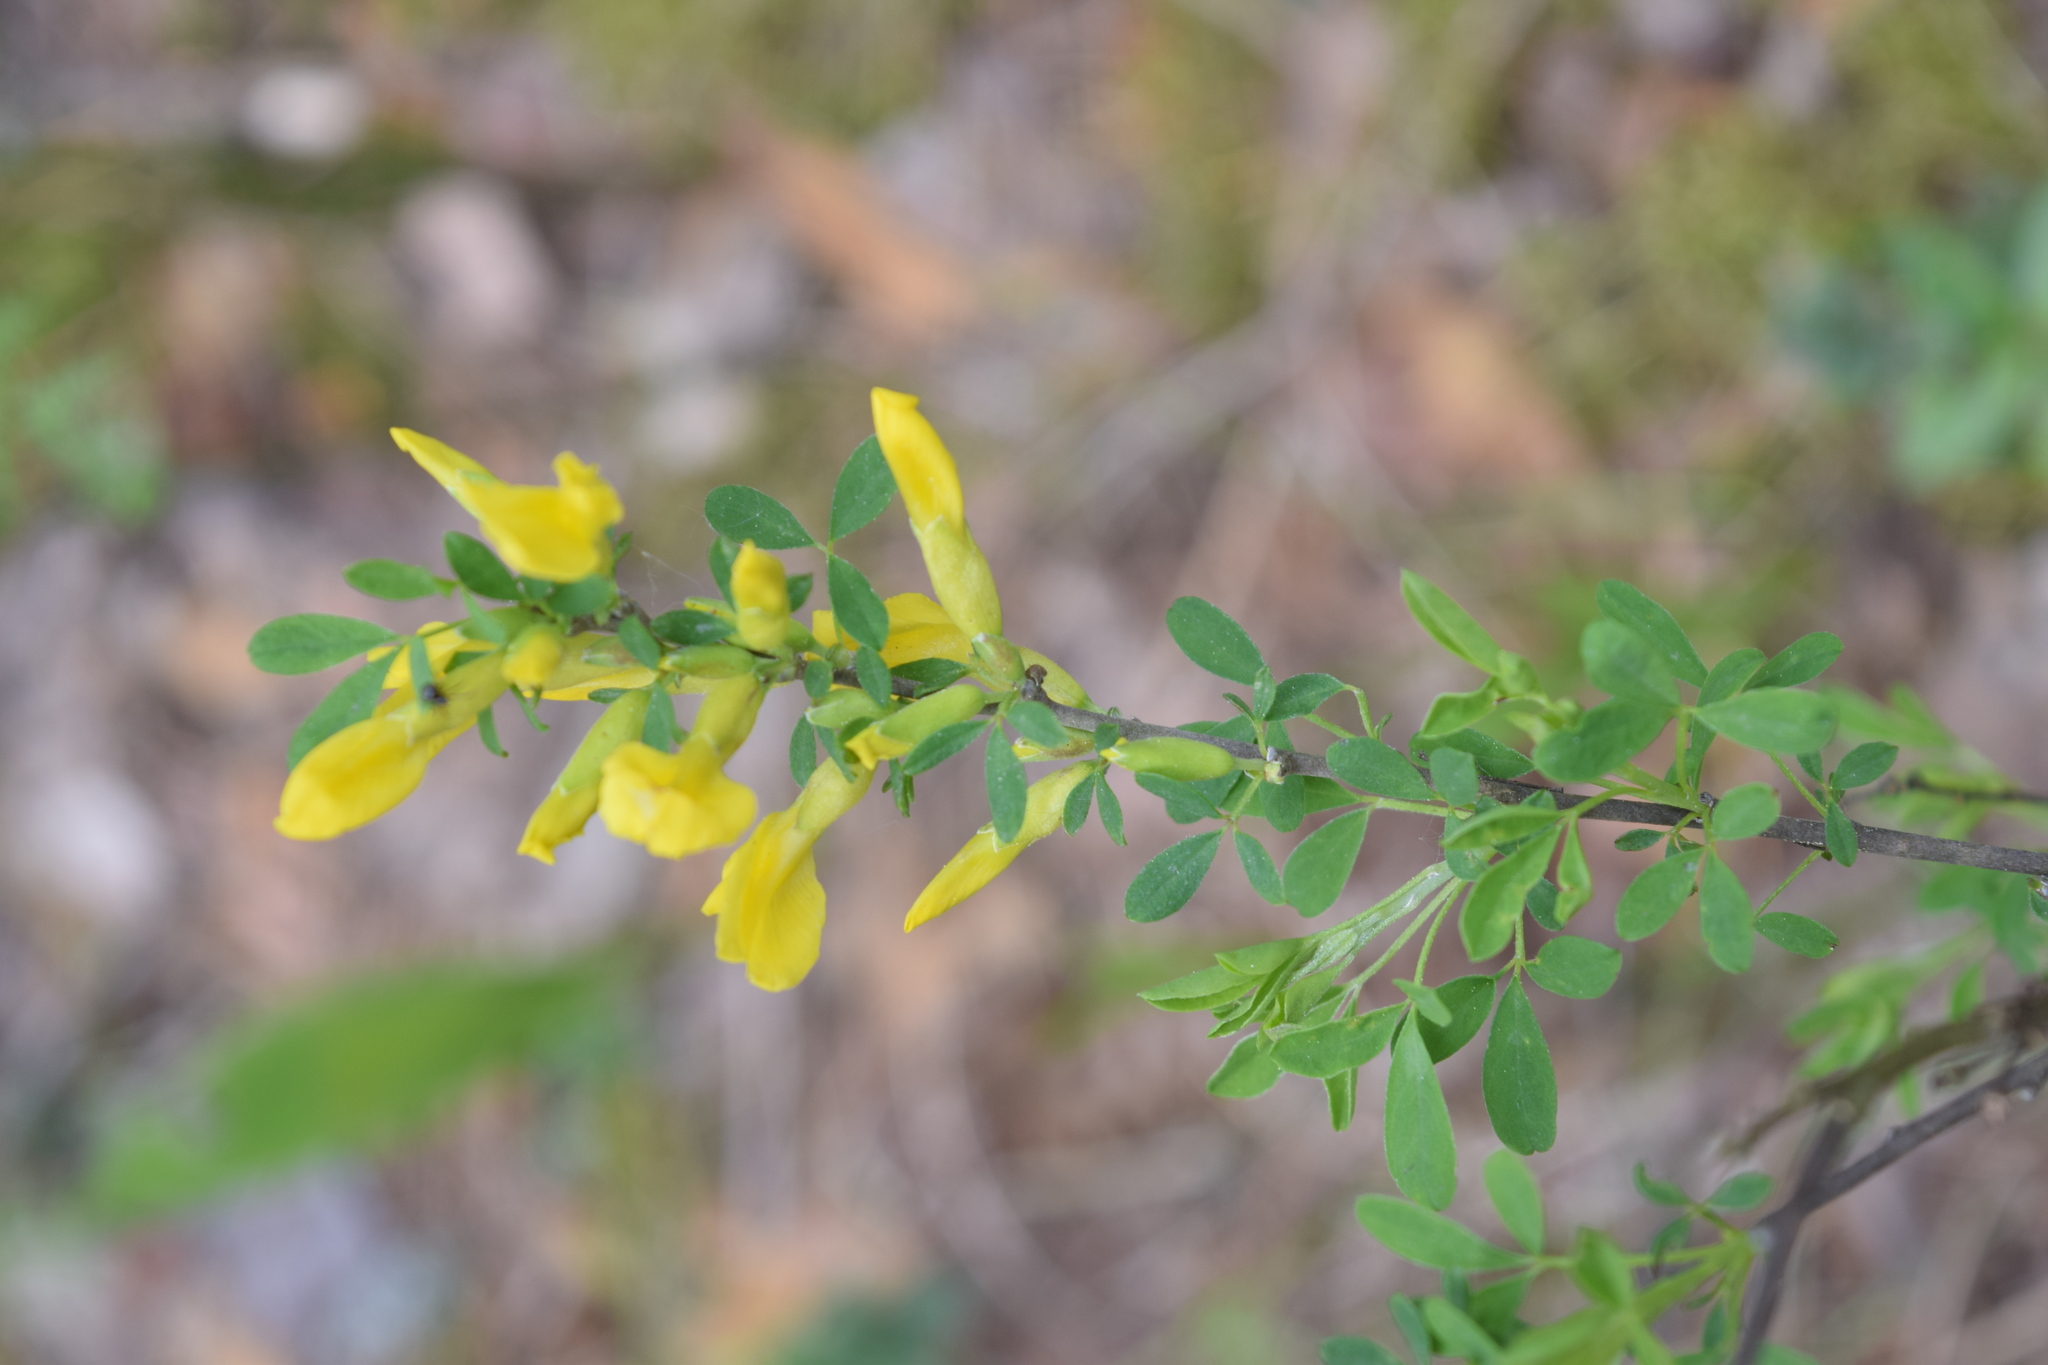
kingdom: Plantae
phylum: Tracheophyta
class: Magnoliopsida
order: Fabales
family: Fabaceae
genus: Chamaecytisus
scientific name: Chamaecytisus ruthenicus
